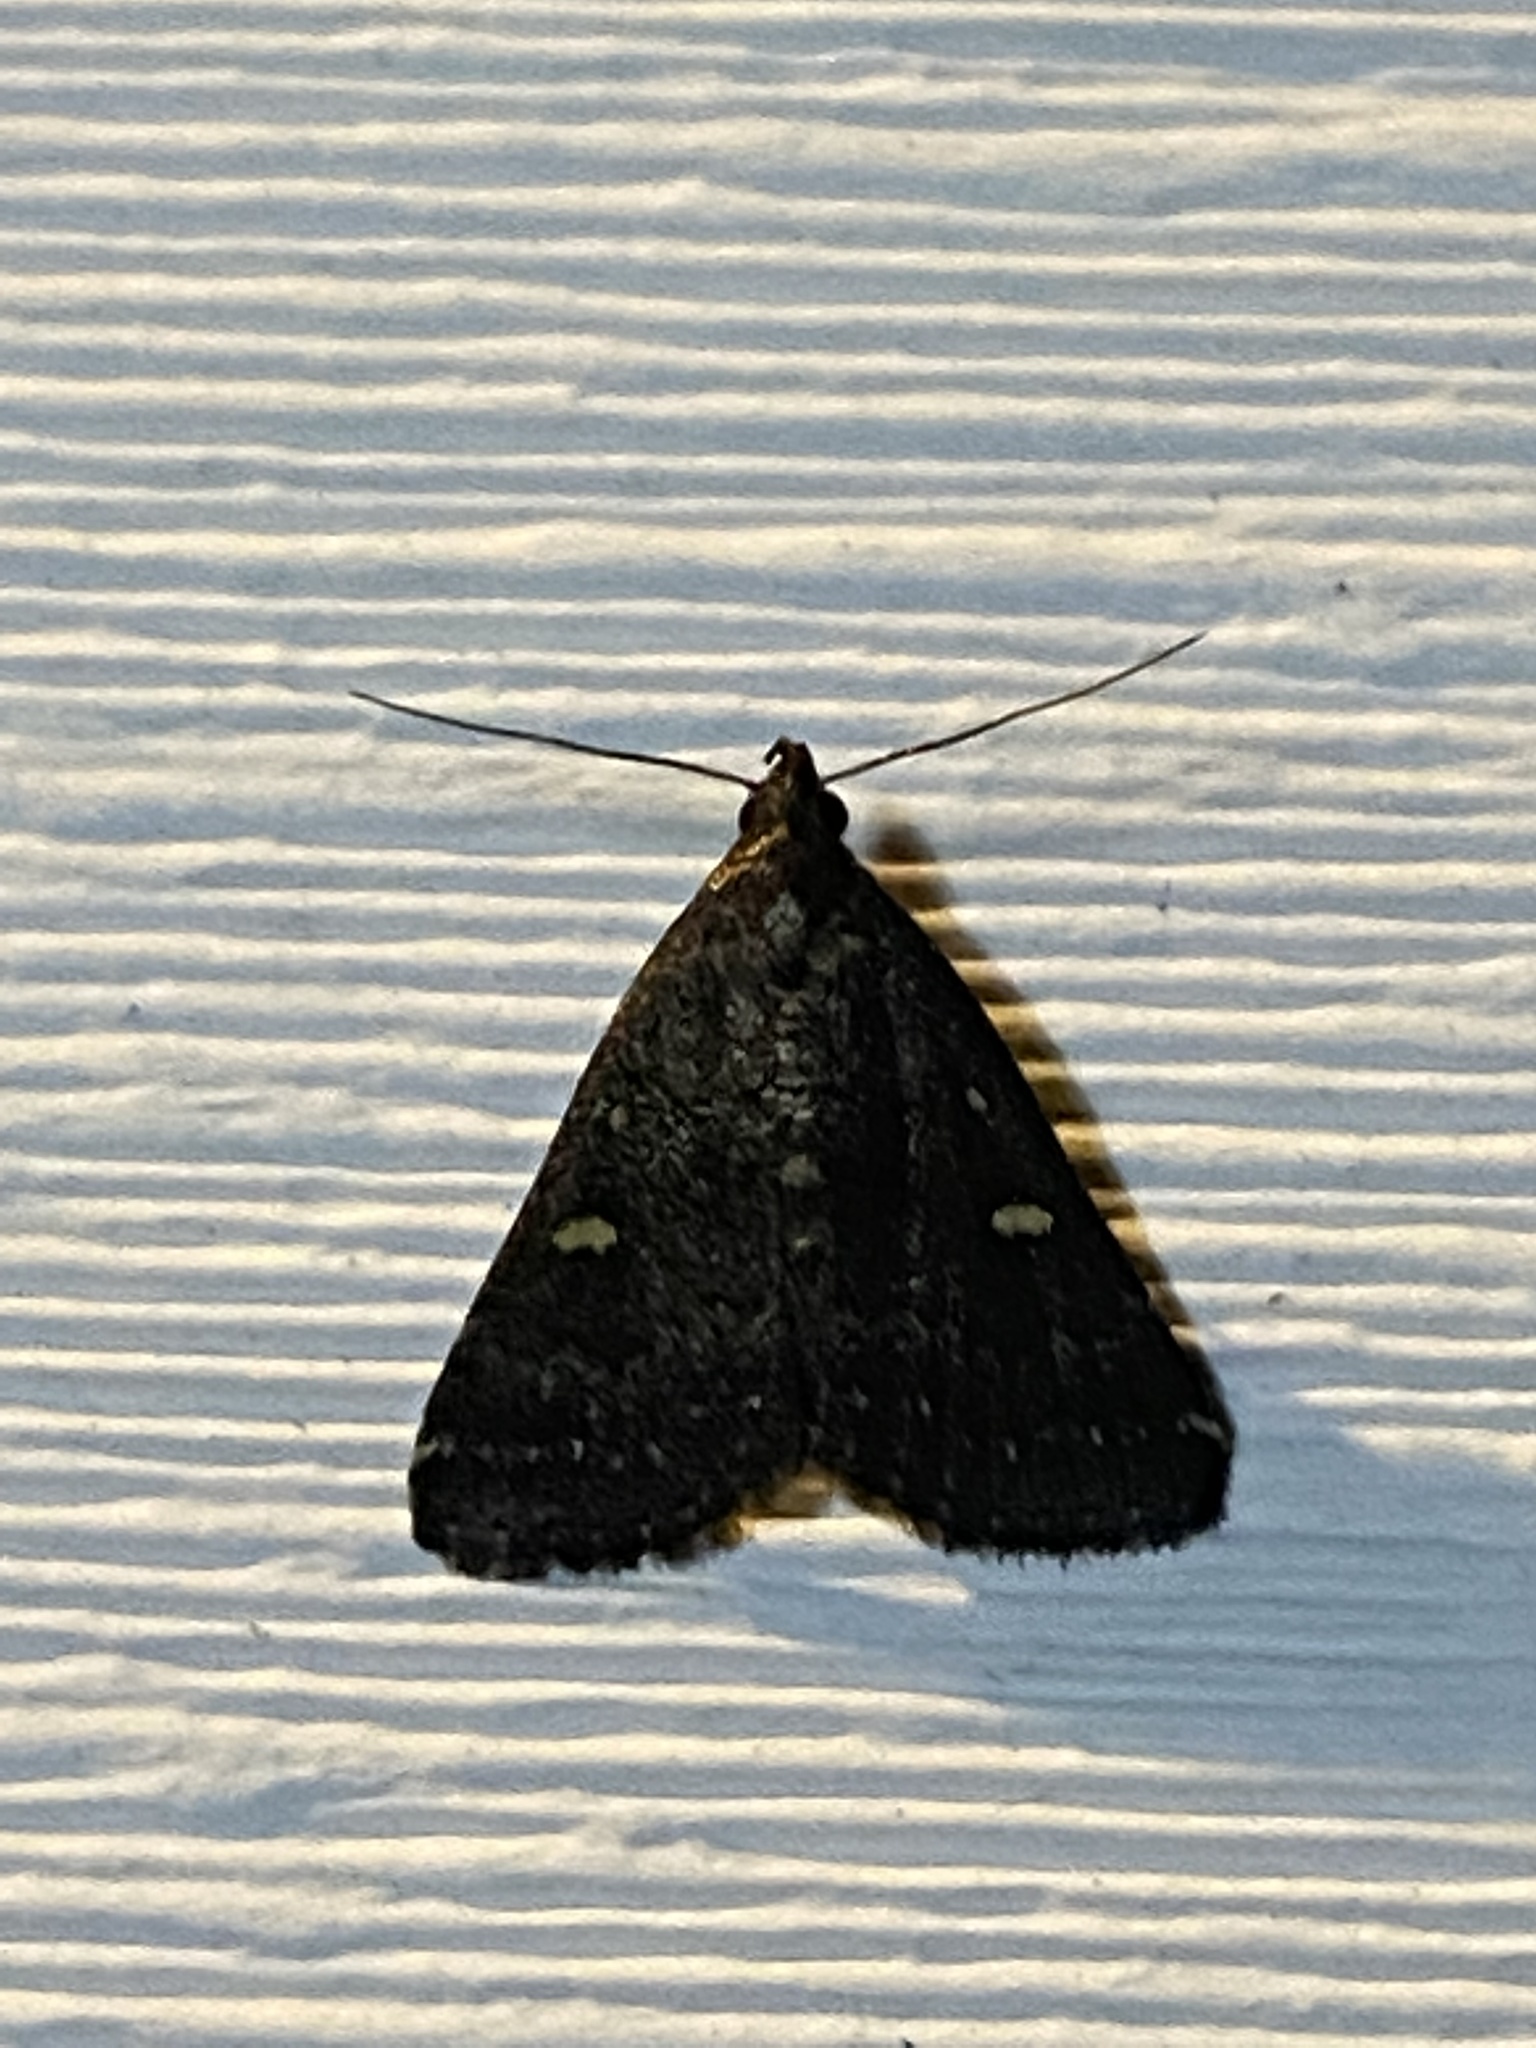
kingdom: Animalia
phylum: Arthropoda
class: Insecta
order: Lepidoptera
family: Erebidae
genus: Tetanolita
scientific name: Tetanolita mynesalis
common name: Smoky tetanolita moth
